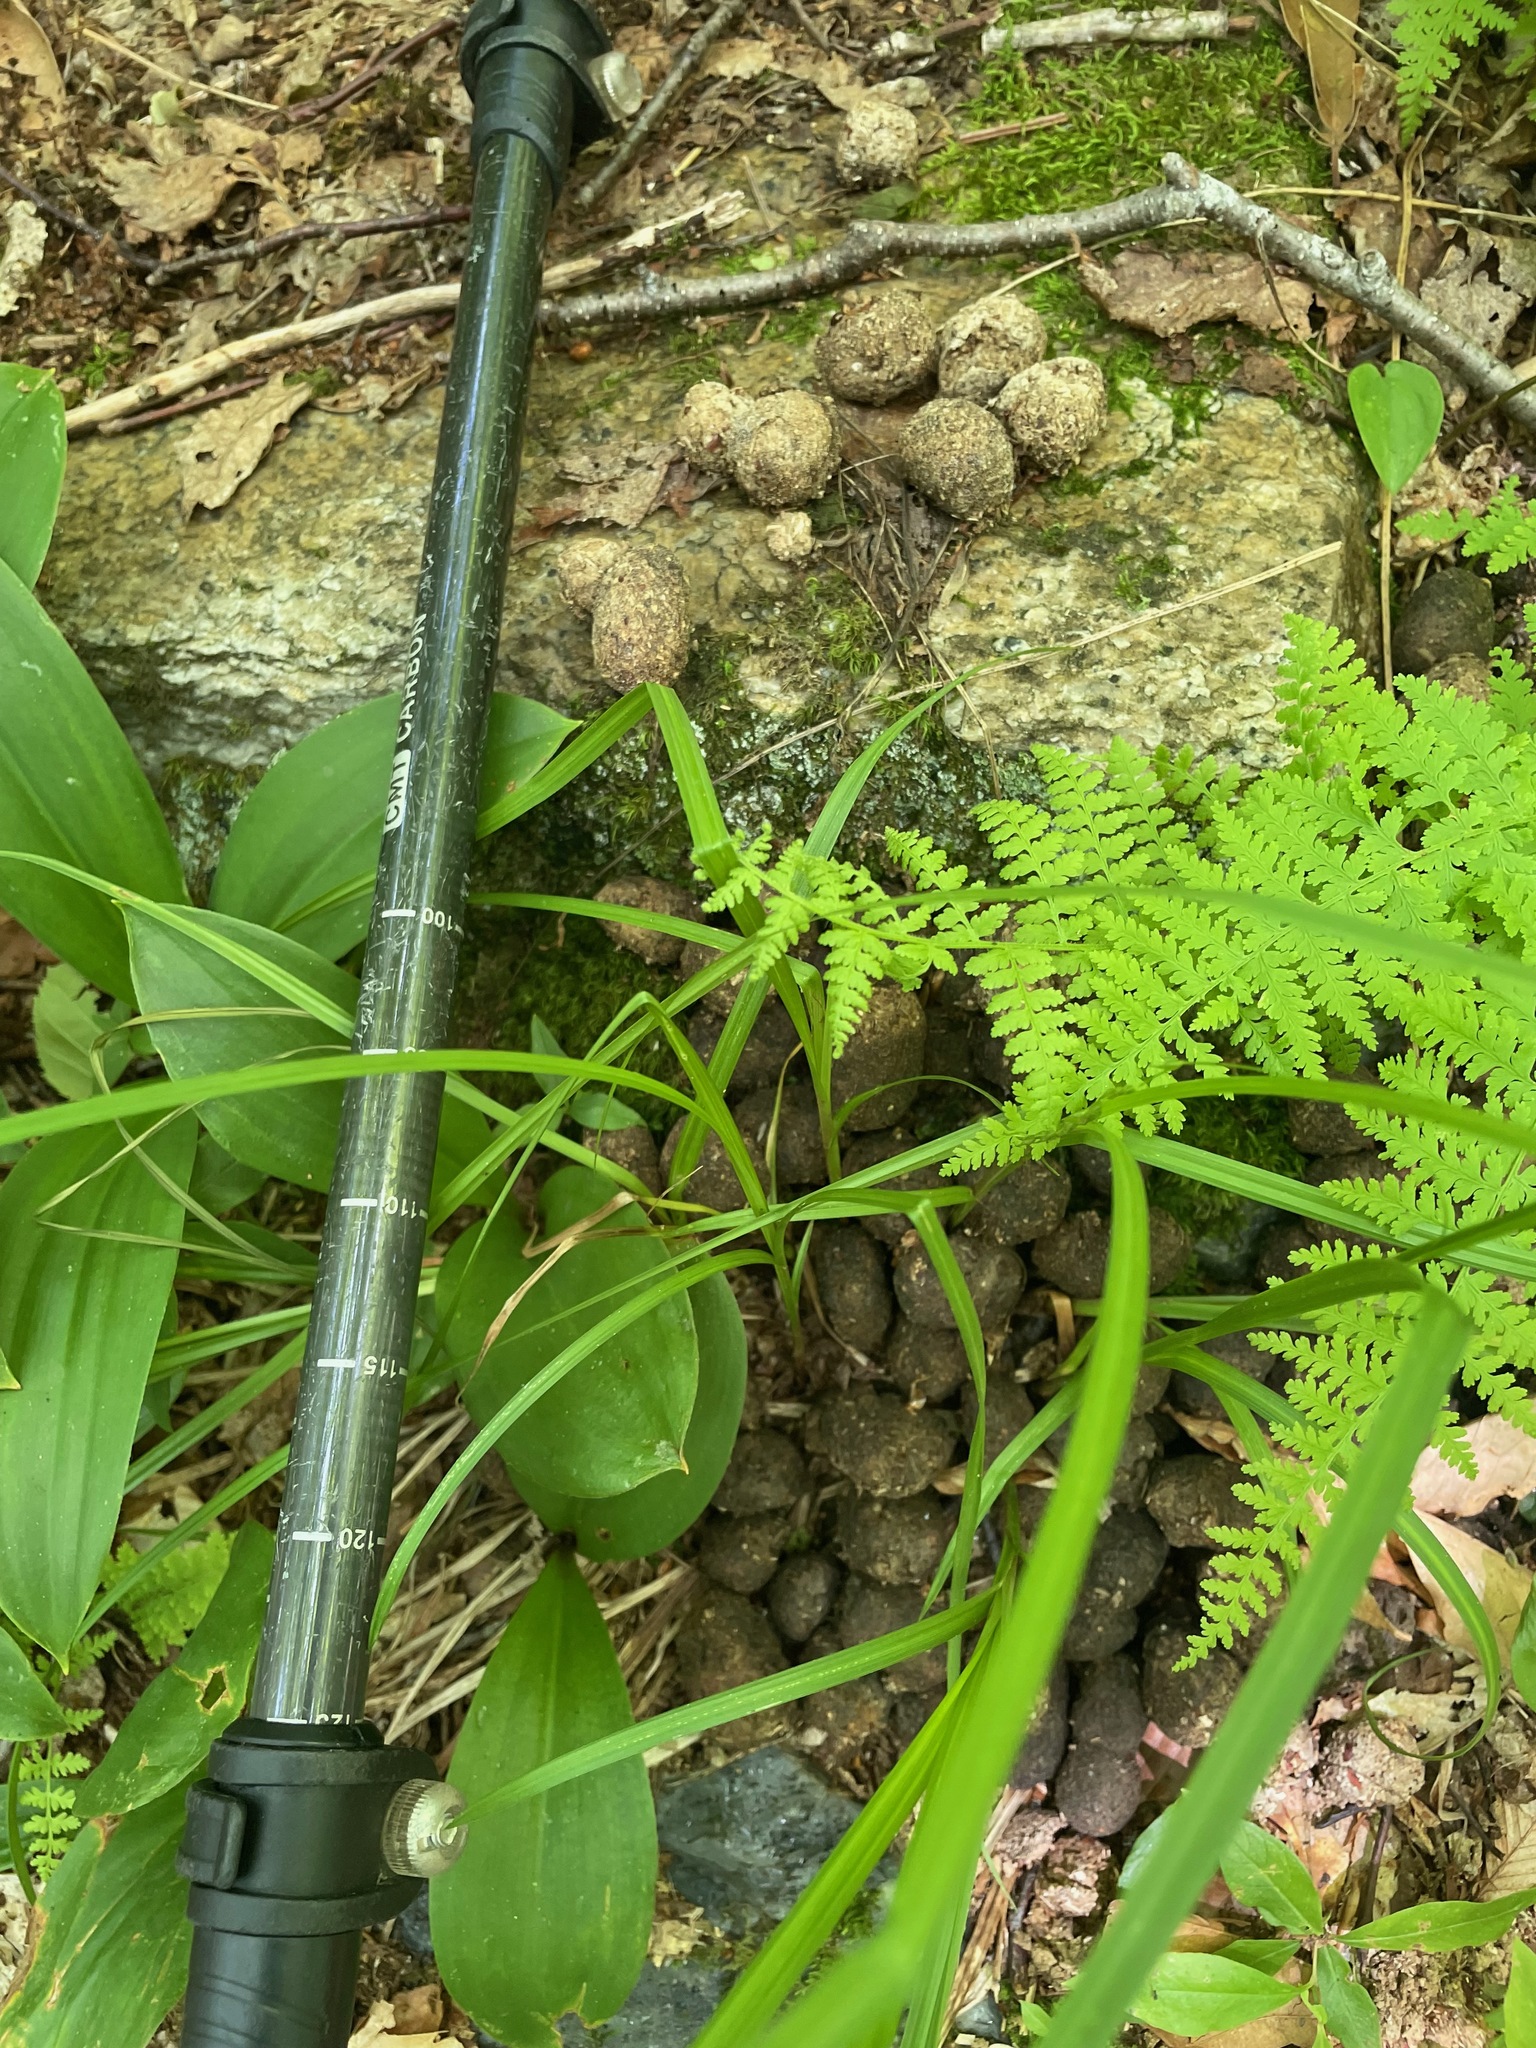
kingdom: Animalia
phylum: Chordata
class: Mammalia
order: Artiodactyla
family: Cervidae
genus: Alces
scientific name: Alces alces
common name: Moose
